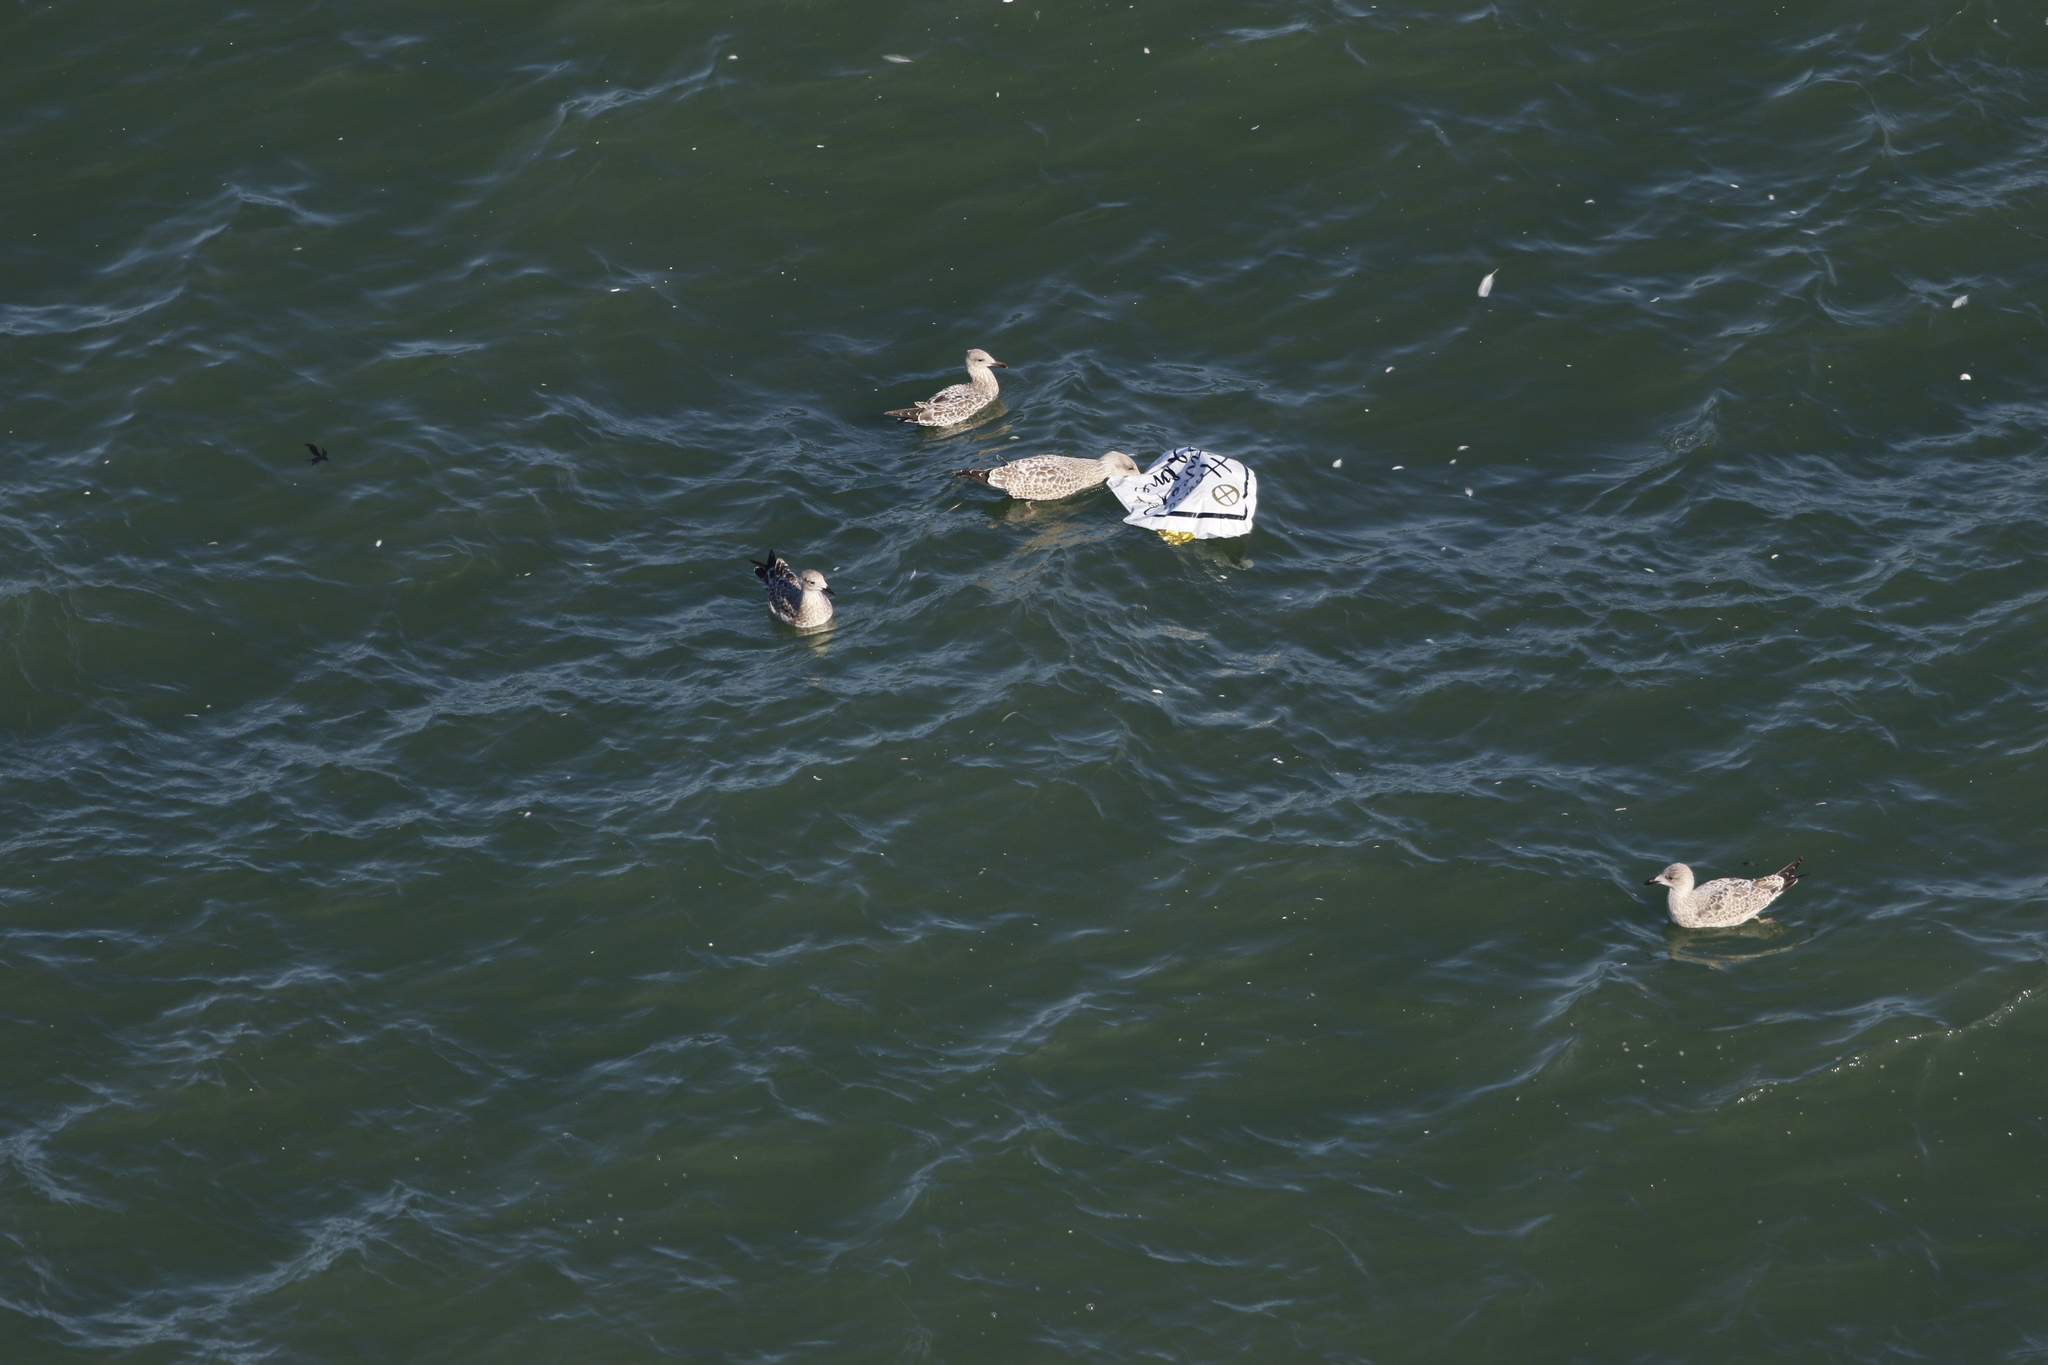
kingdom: Animalia
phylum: Chordata
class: Aves
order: Charadriiformes
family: Laridae
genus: Larus
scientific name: Larus argentatus
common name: Herring gull
